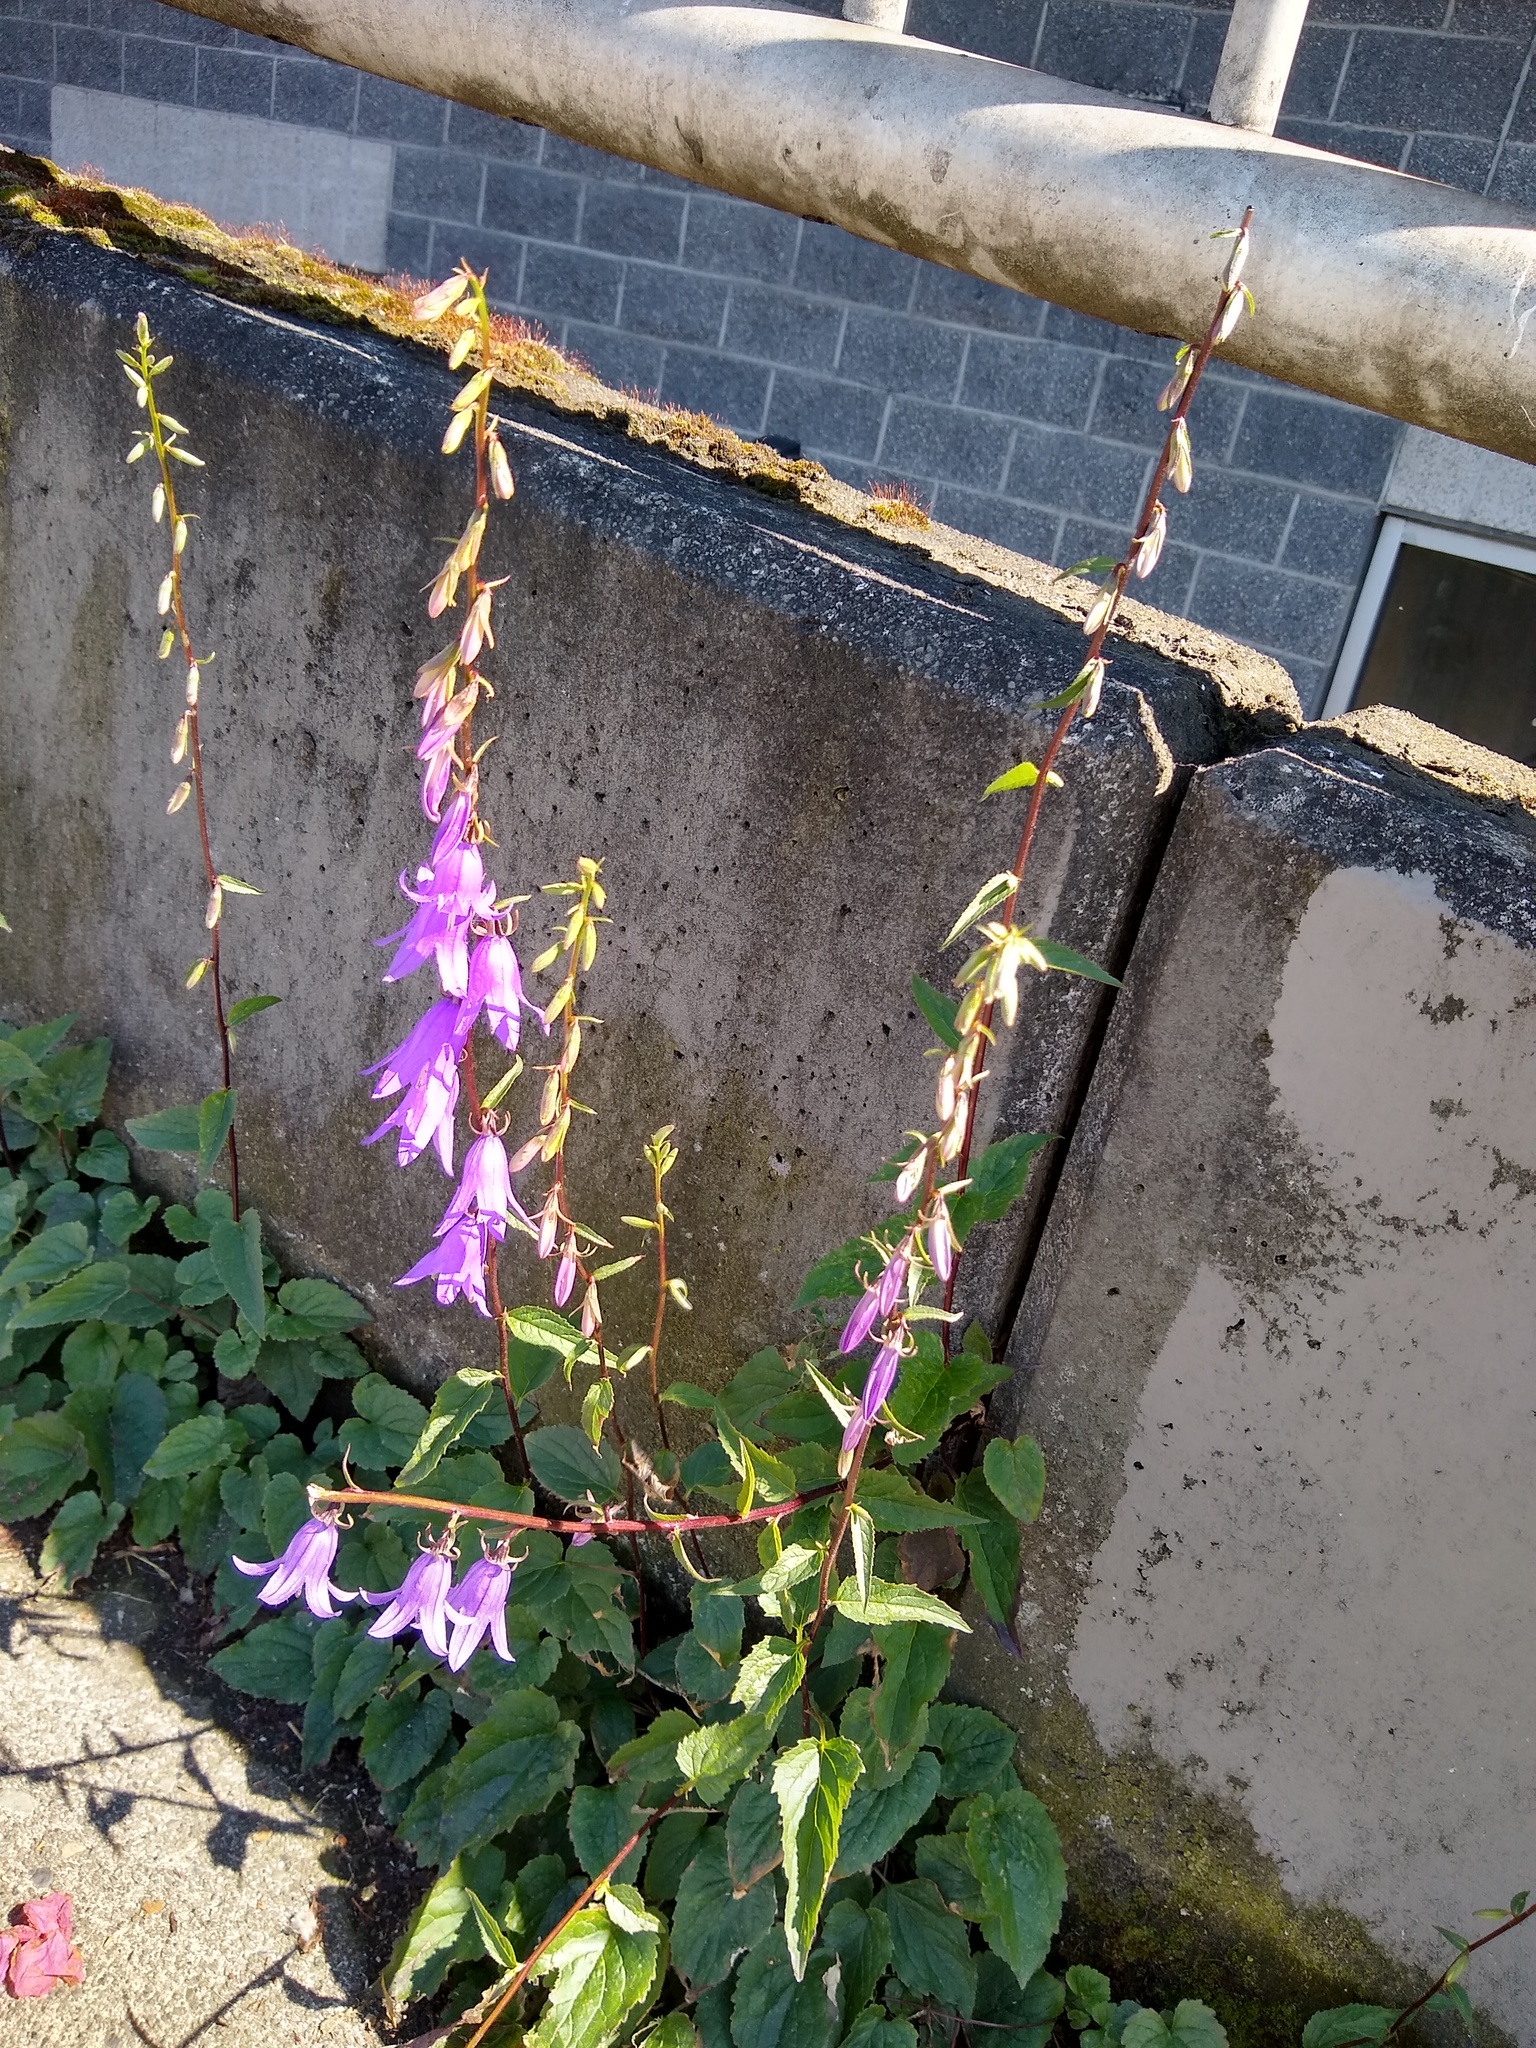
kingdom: Plantae
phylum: Tracheophyta
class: Magnoliopsida
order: Asterales
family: Campanulaceae
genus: Campanula
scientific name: Campanula rapunculoides
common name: Creeping bellflower
